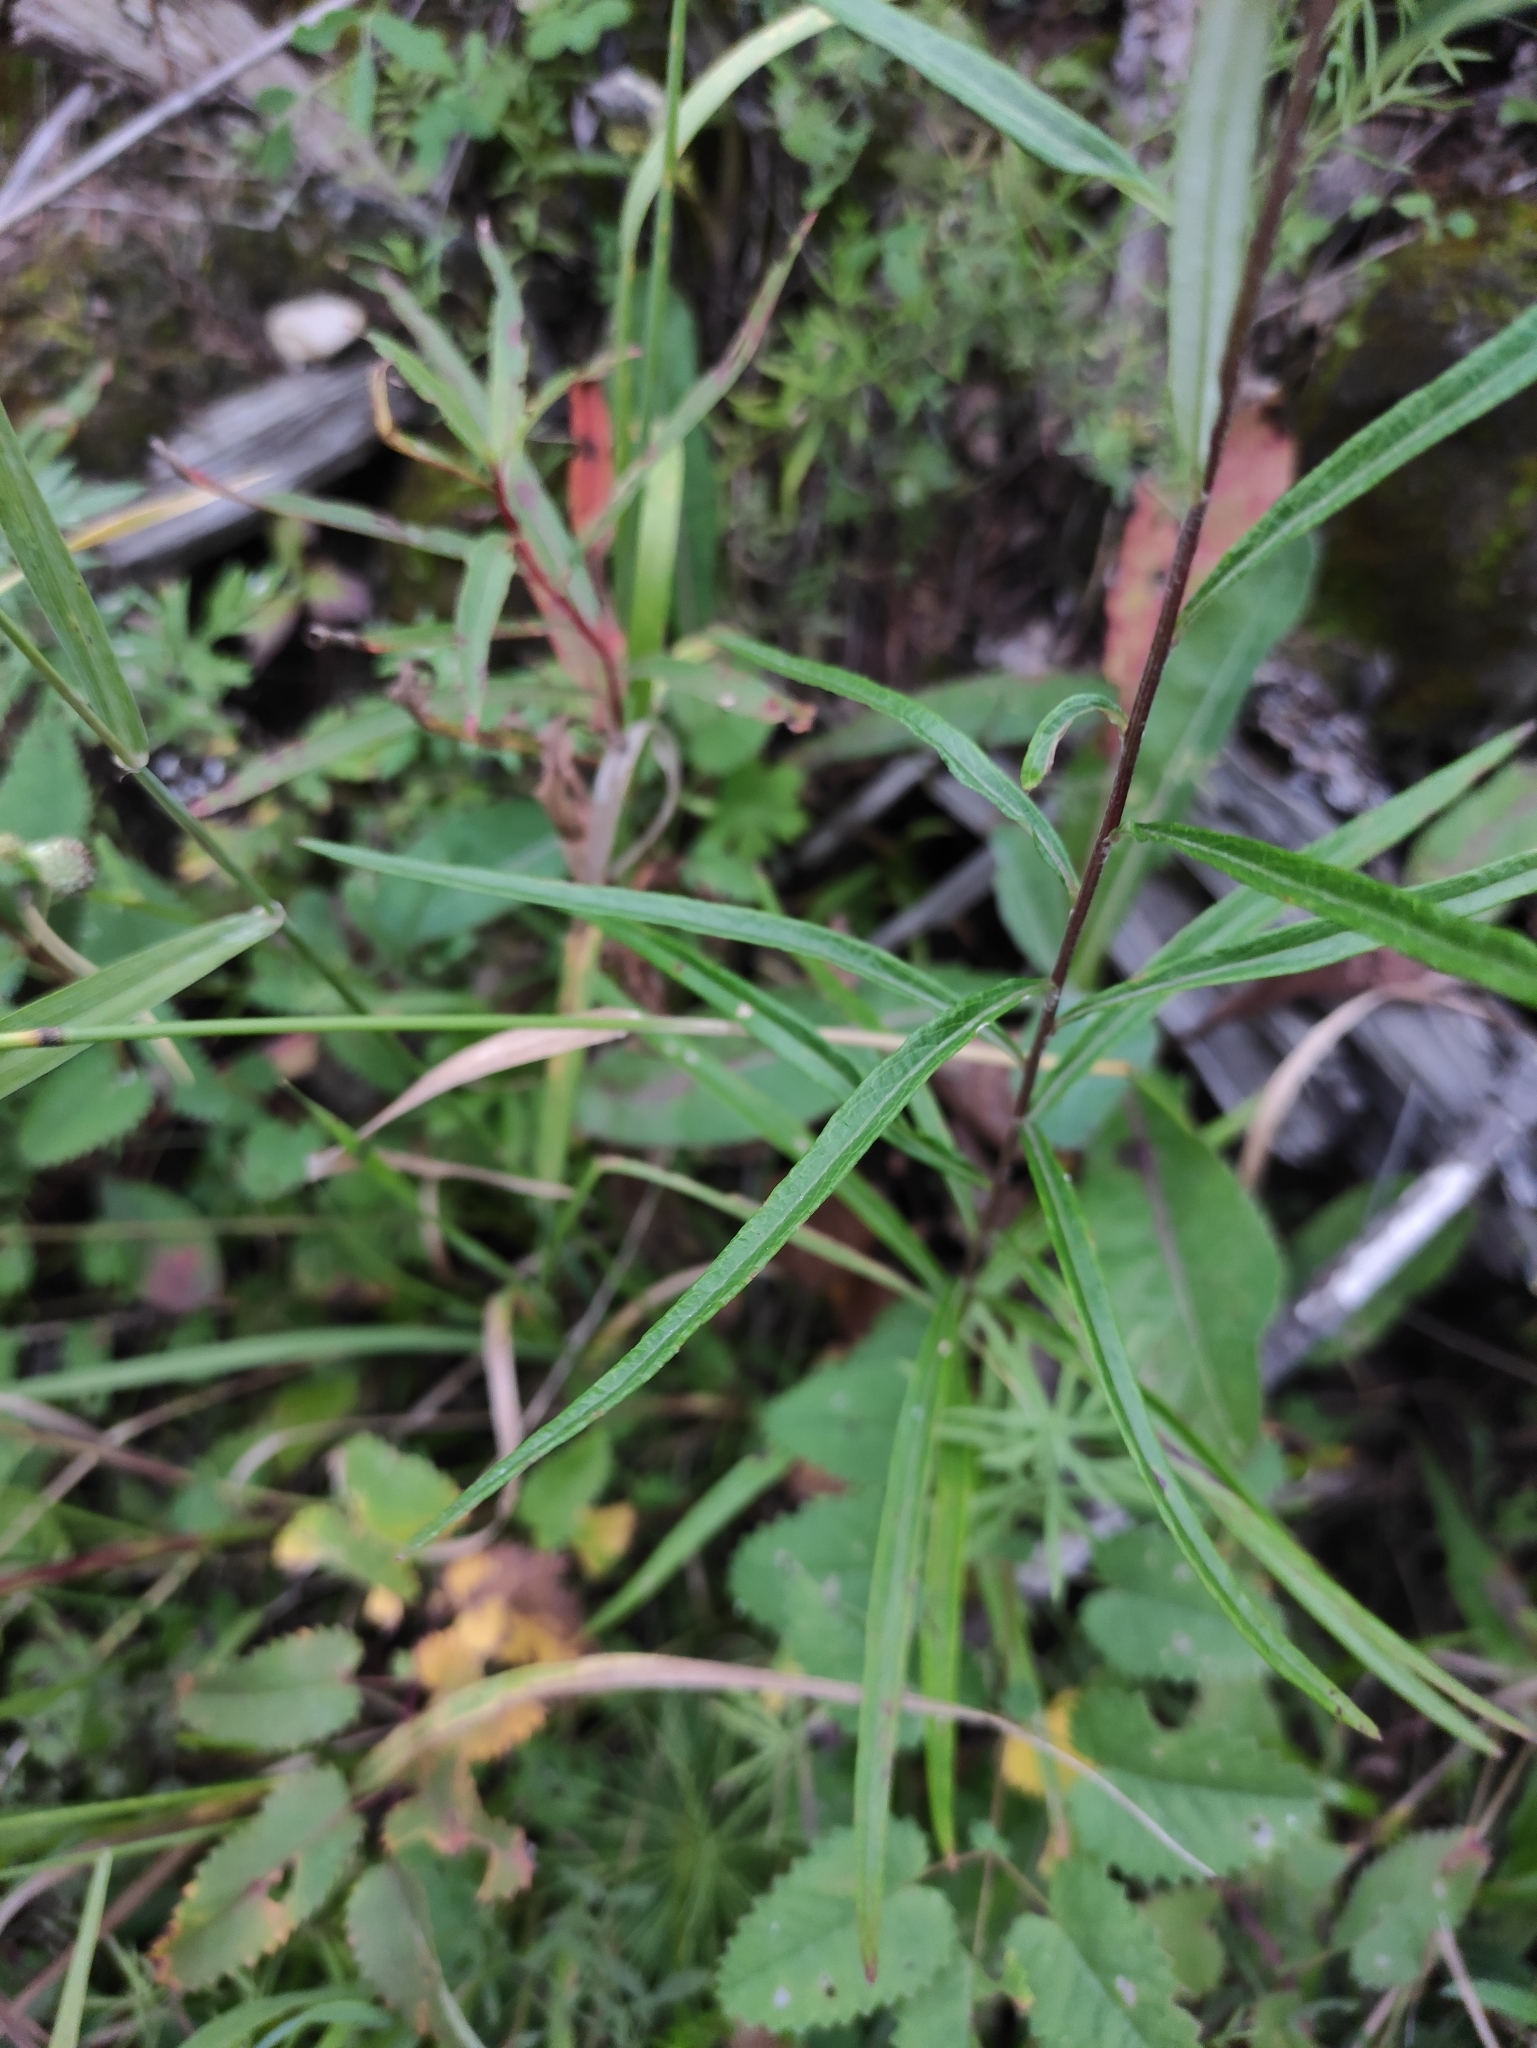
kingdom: Plantae
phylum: Tracheophyta
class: Magnoliopsida
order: Asterales
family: Asteraceae
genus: Artemisia
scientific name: Artemisia integrifolia
